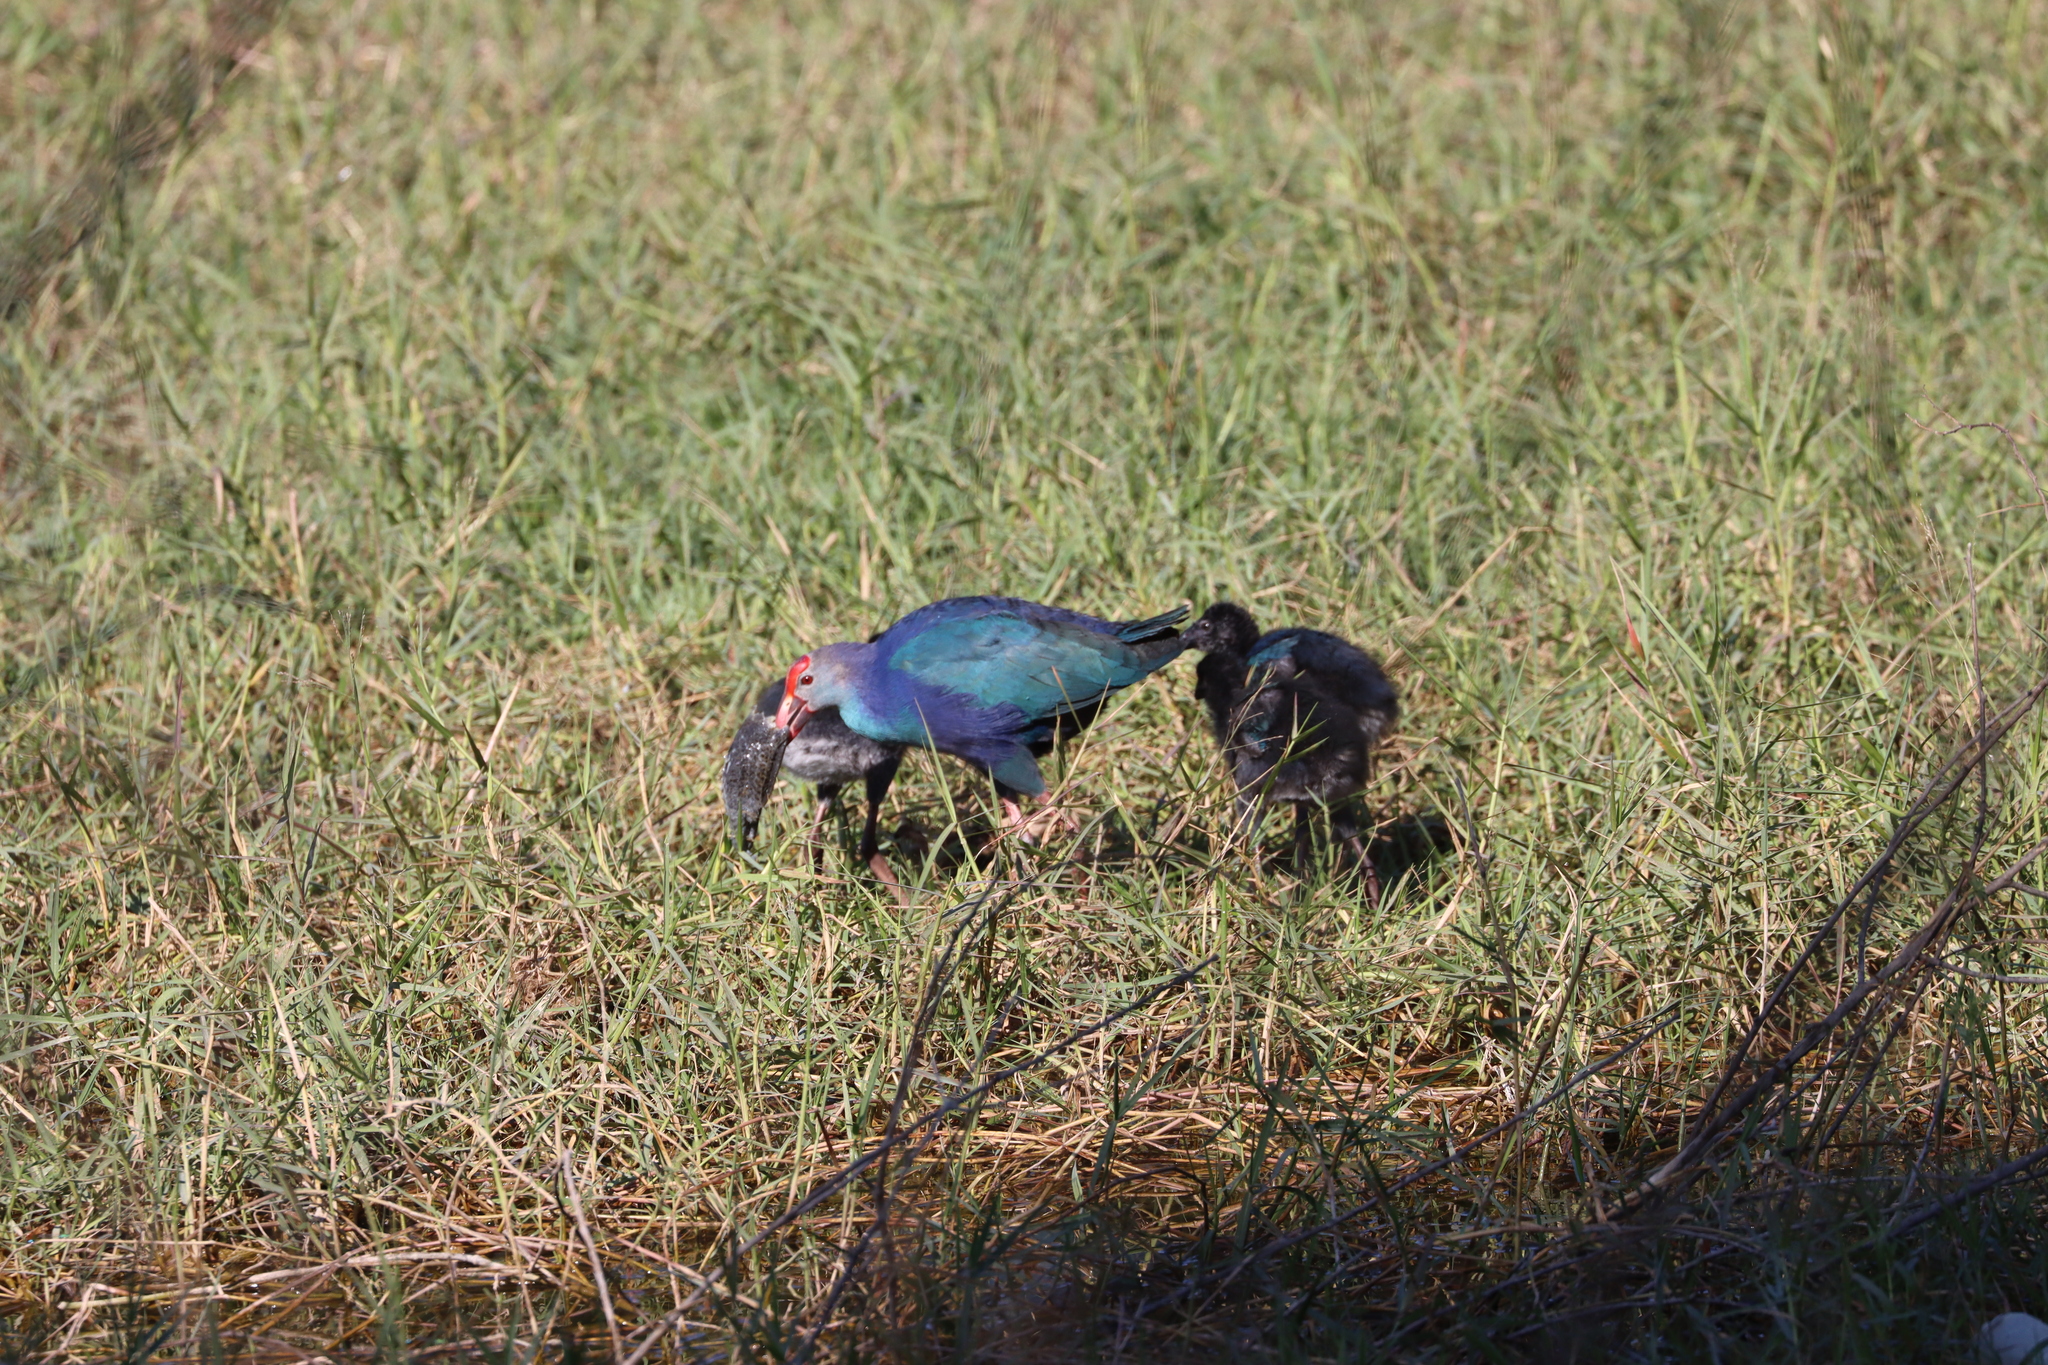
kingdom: Animalia
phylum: Chordata
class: Aves
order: Gruiformes
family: Rallidae
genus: Porphyrio
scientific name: Porphyrio porphyrio
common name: Purple swamphen
